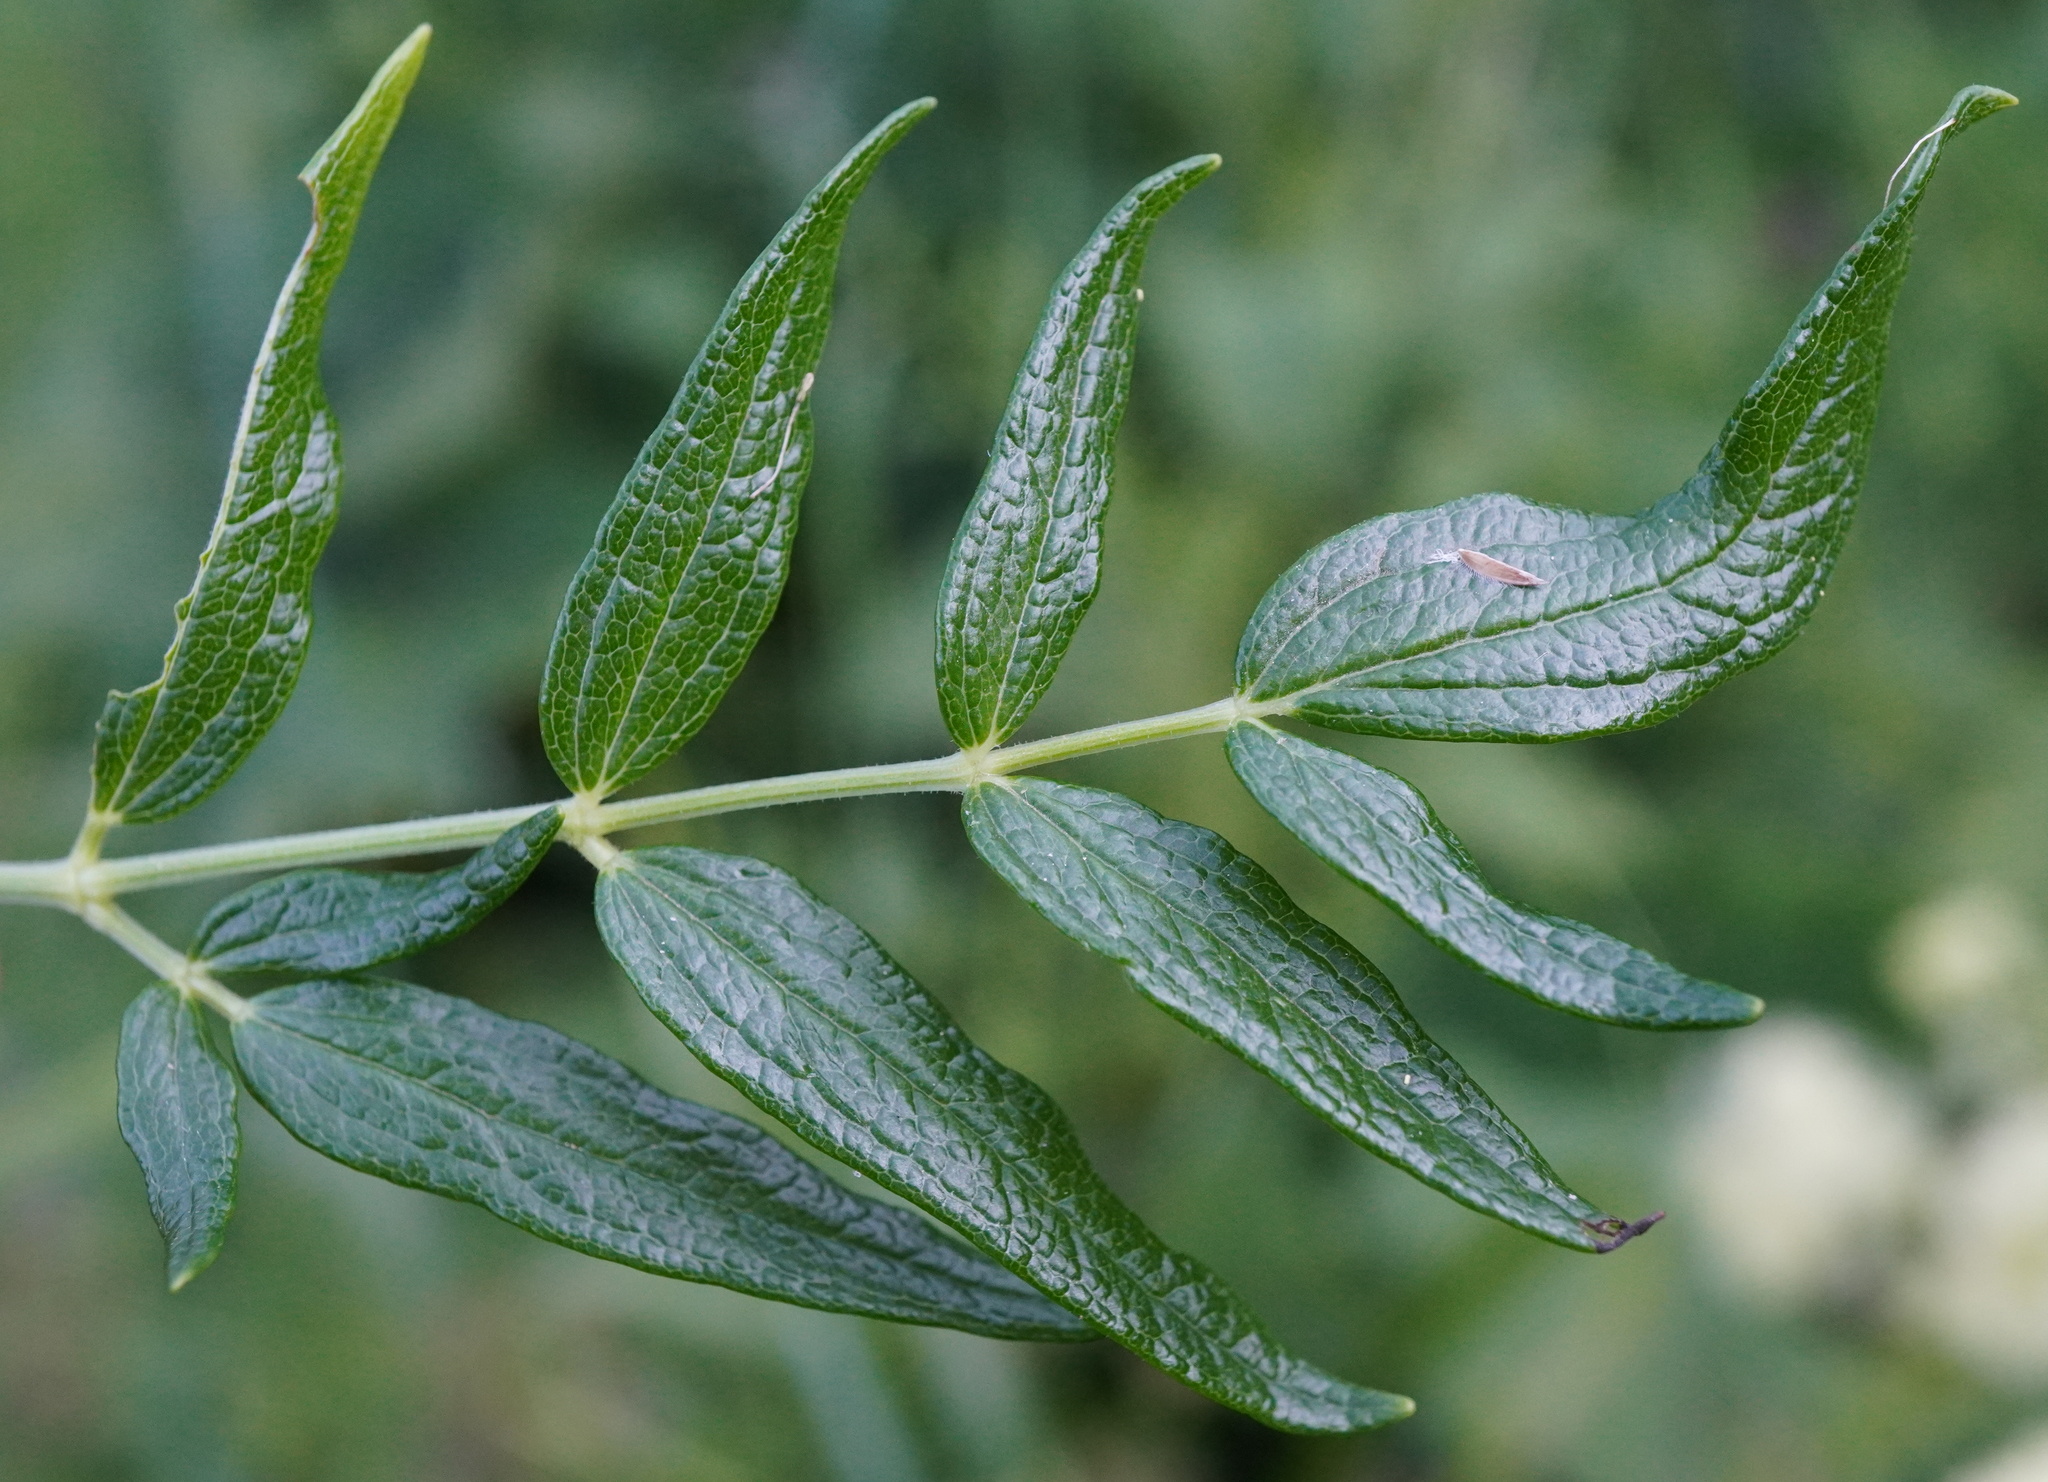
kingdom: Plantae
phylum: Tracheophyta
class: Magnoliopsida
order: Ranunculales
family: Ranunculaceae
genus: Thalictrum
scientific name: Thalictrum lucidum
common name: Shining meadow-rue
